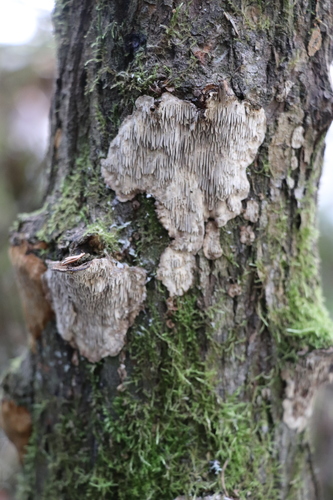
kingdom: Fungi
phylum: Basidiomycota
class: Agaricomycetes
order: Polyporales
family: Polyporaceae
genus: Podofomes
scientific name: Podofomes mollis
